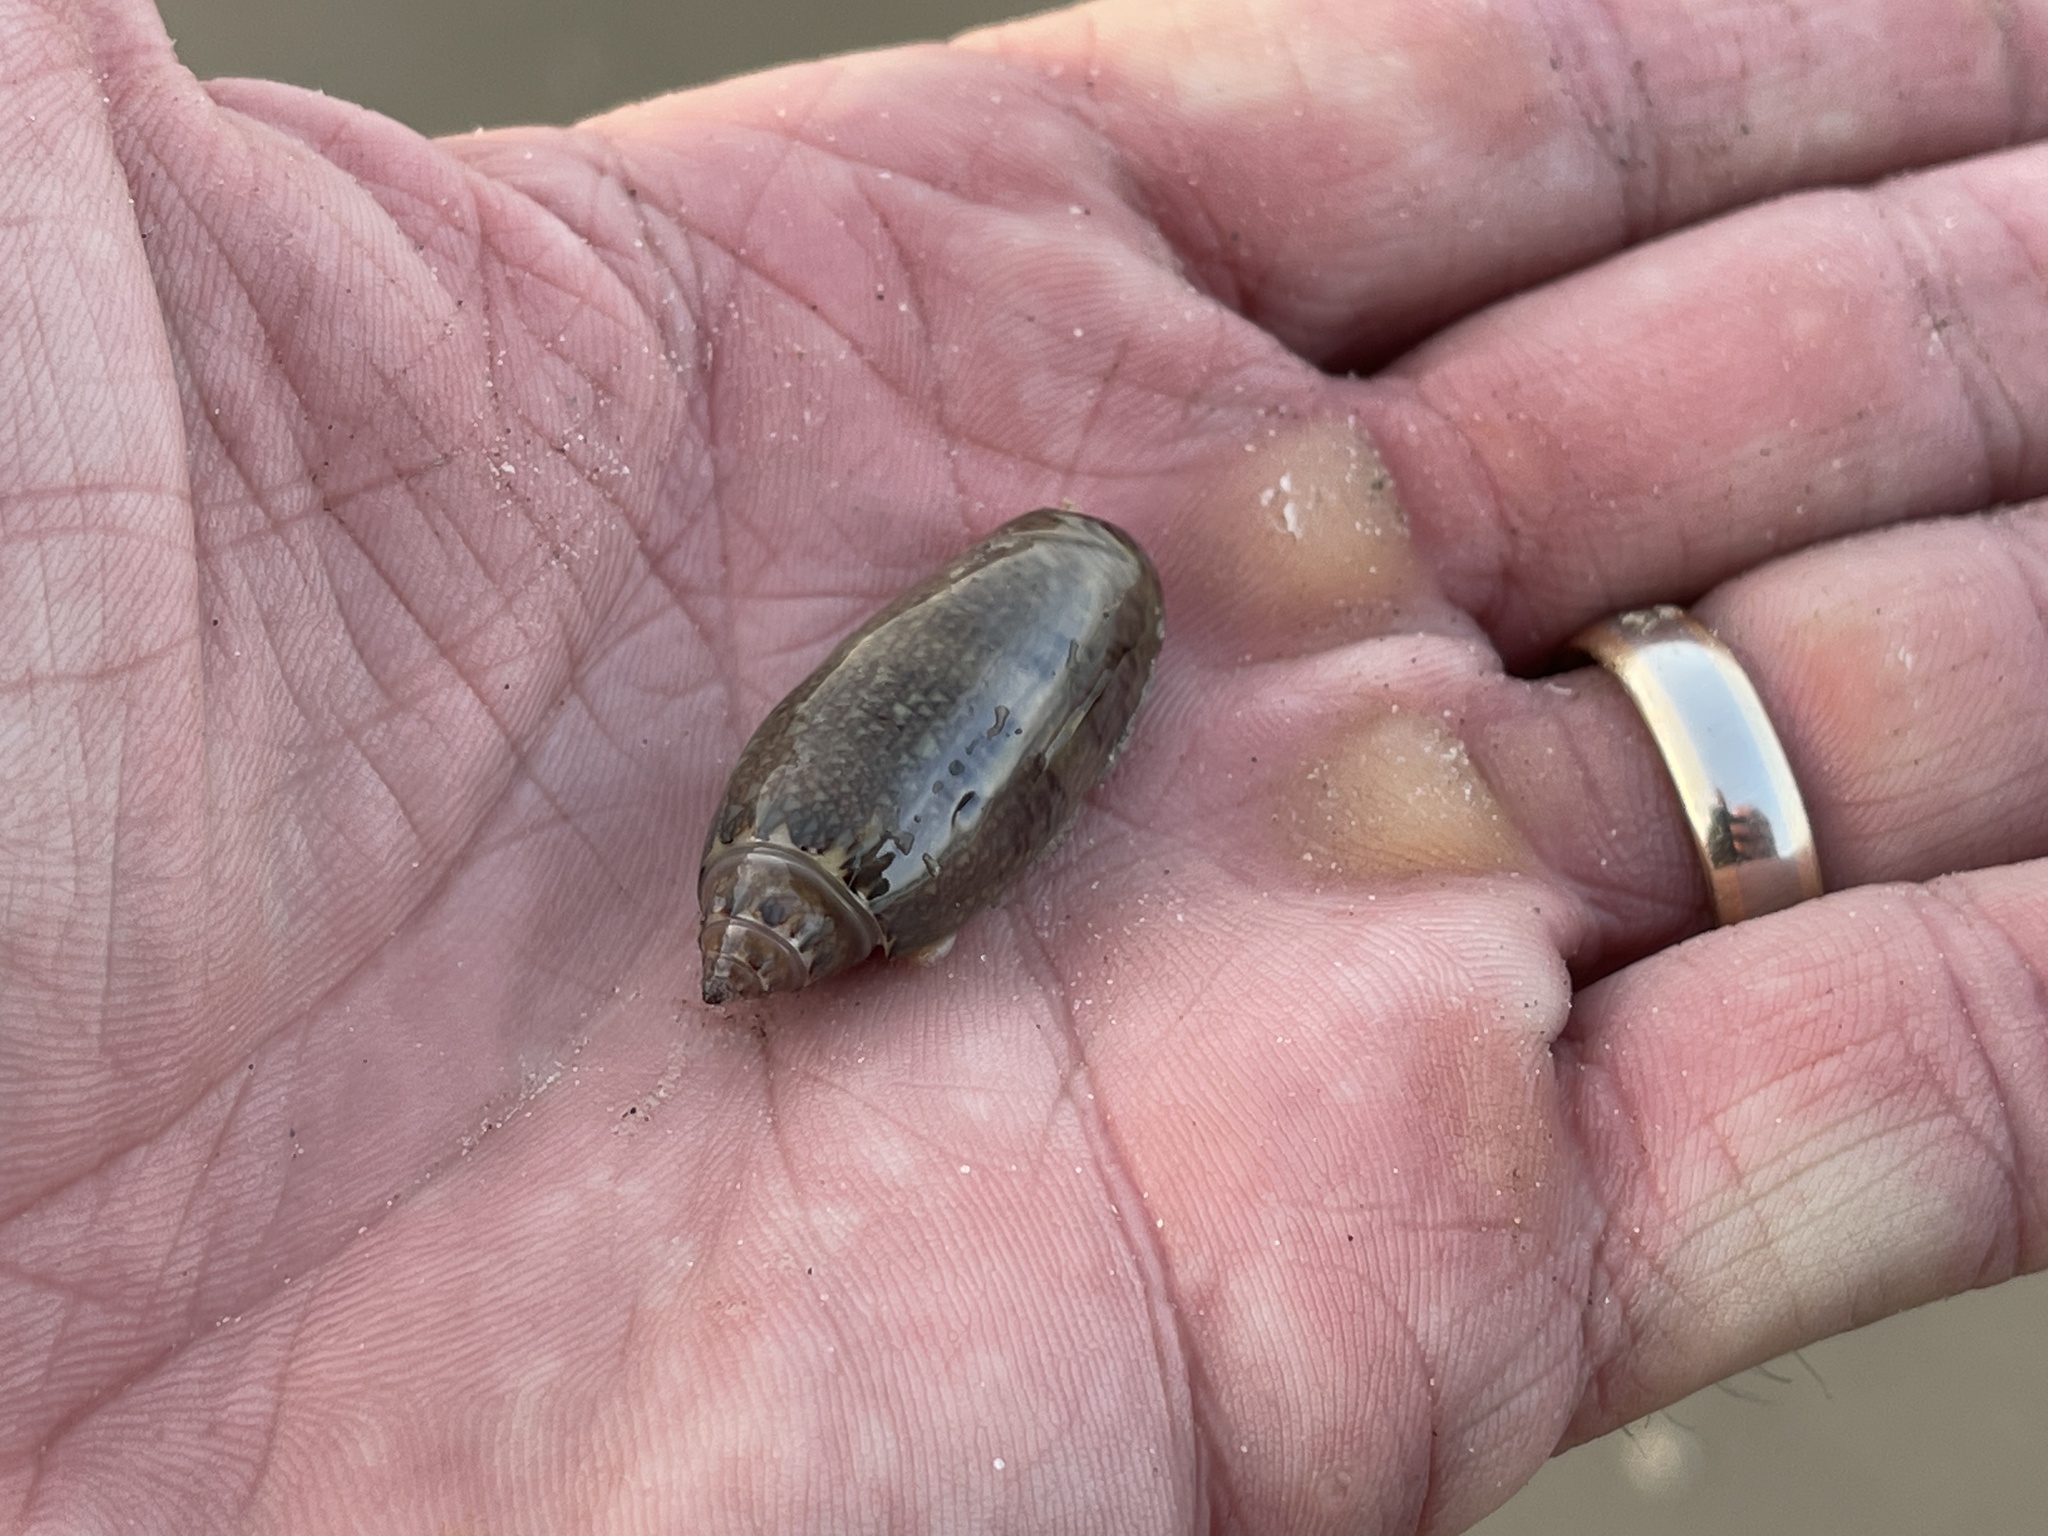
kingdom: Animalia
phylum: Mollusca
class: Gastropoda
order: Neogastropoda
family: Olividae
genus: Oliva
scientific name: Oliva sayana
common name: Lettered olive
